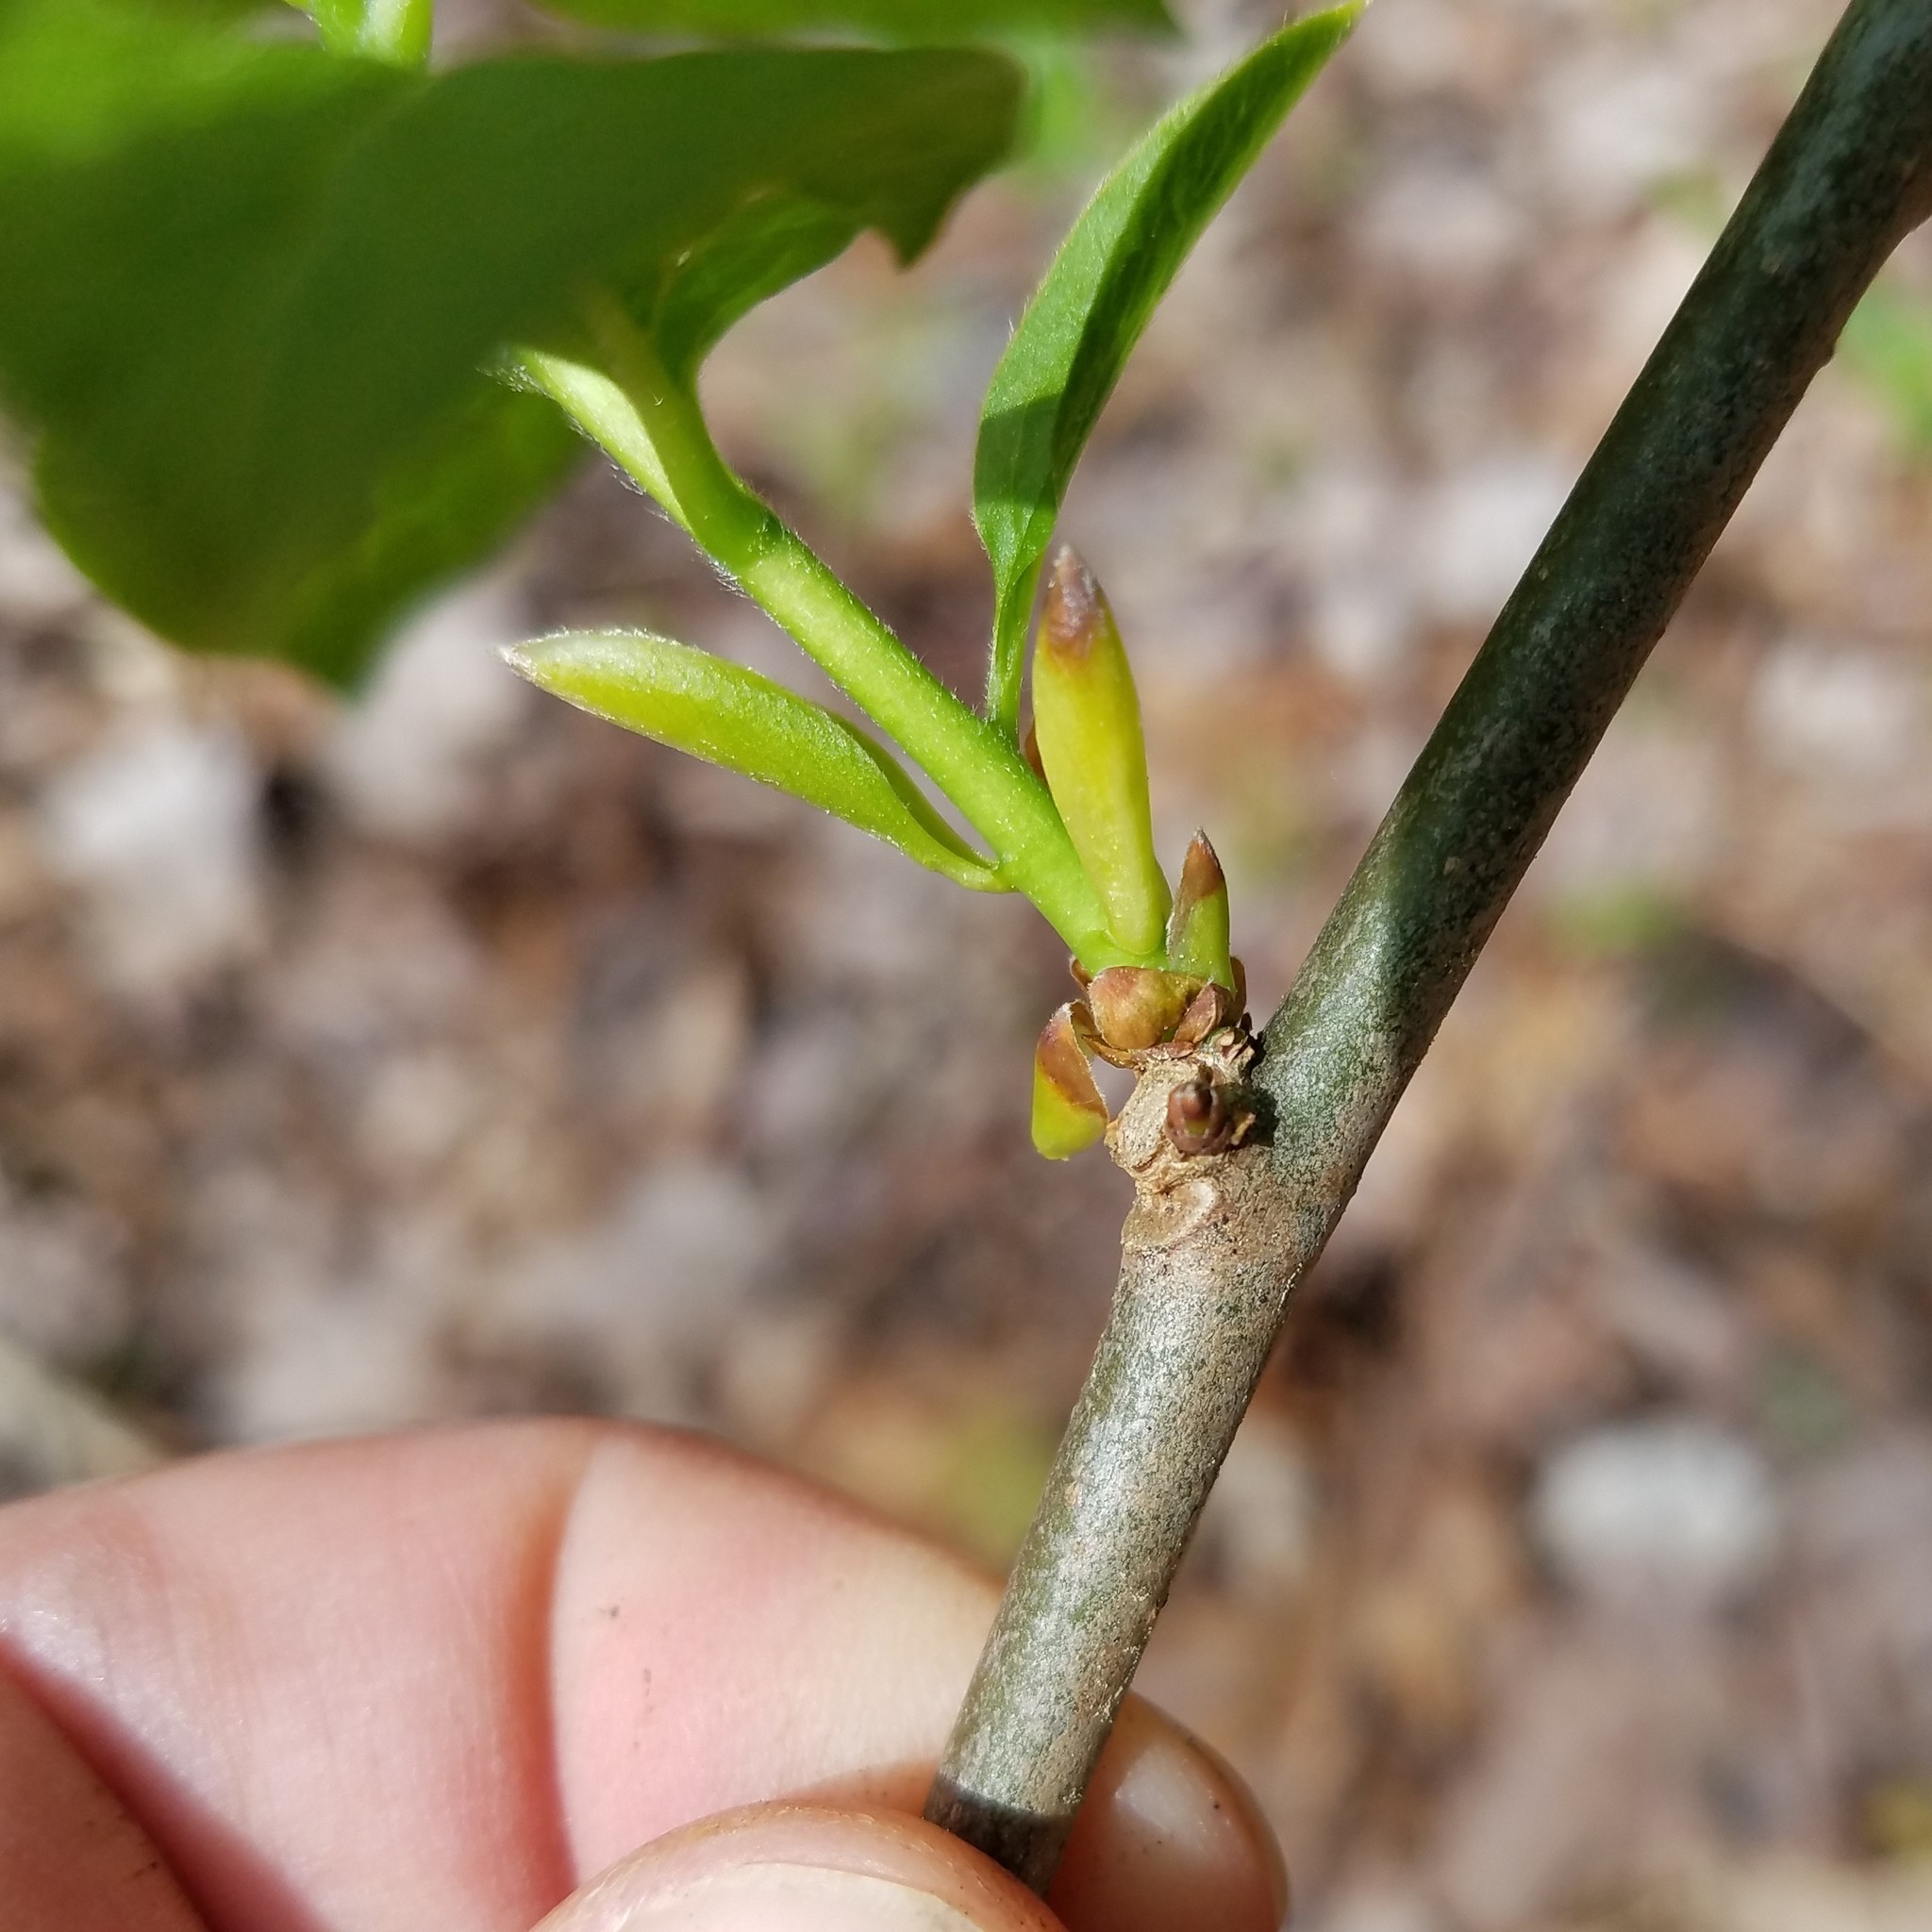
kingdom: Plantae
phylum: Tracheophyta
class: Magnoliopsida
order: Santalales
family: Cervantesiaceae
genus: Pyrularia
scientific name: Pyrularia pubera
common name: Oilnut
